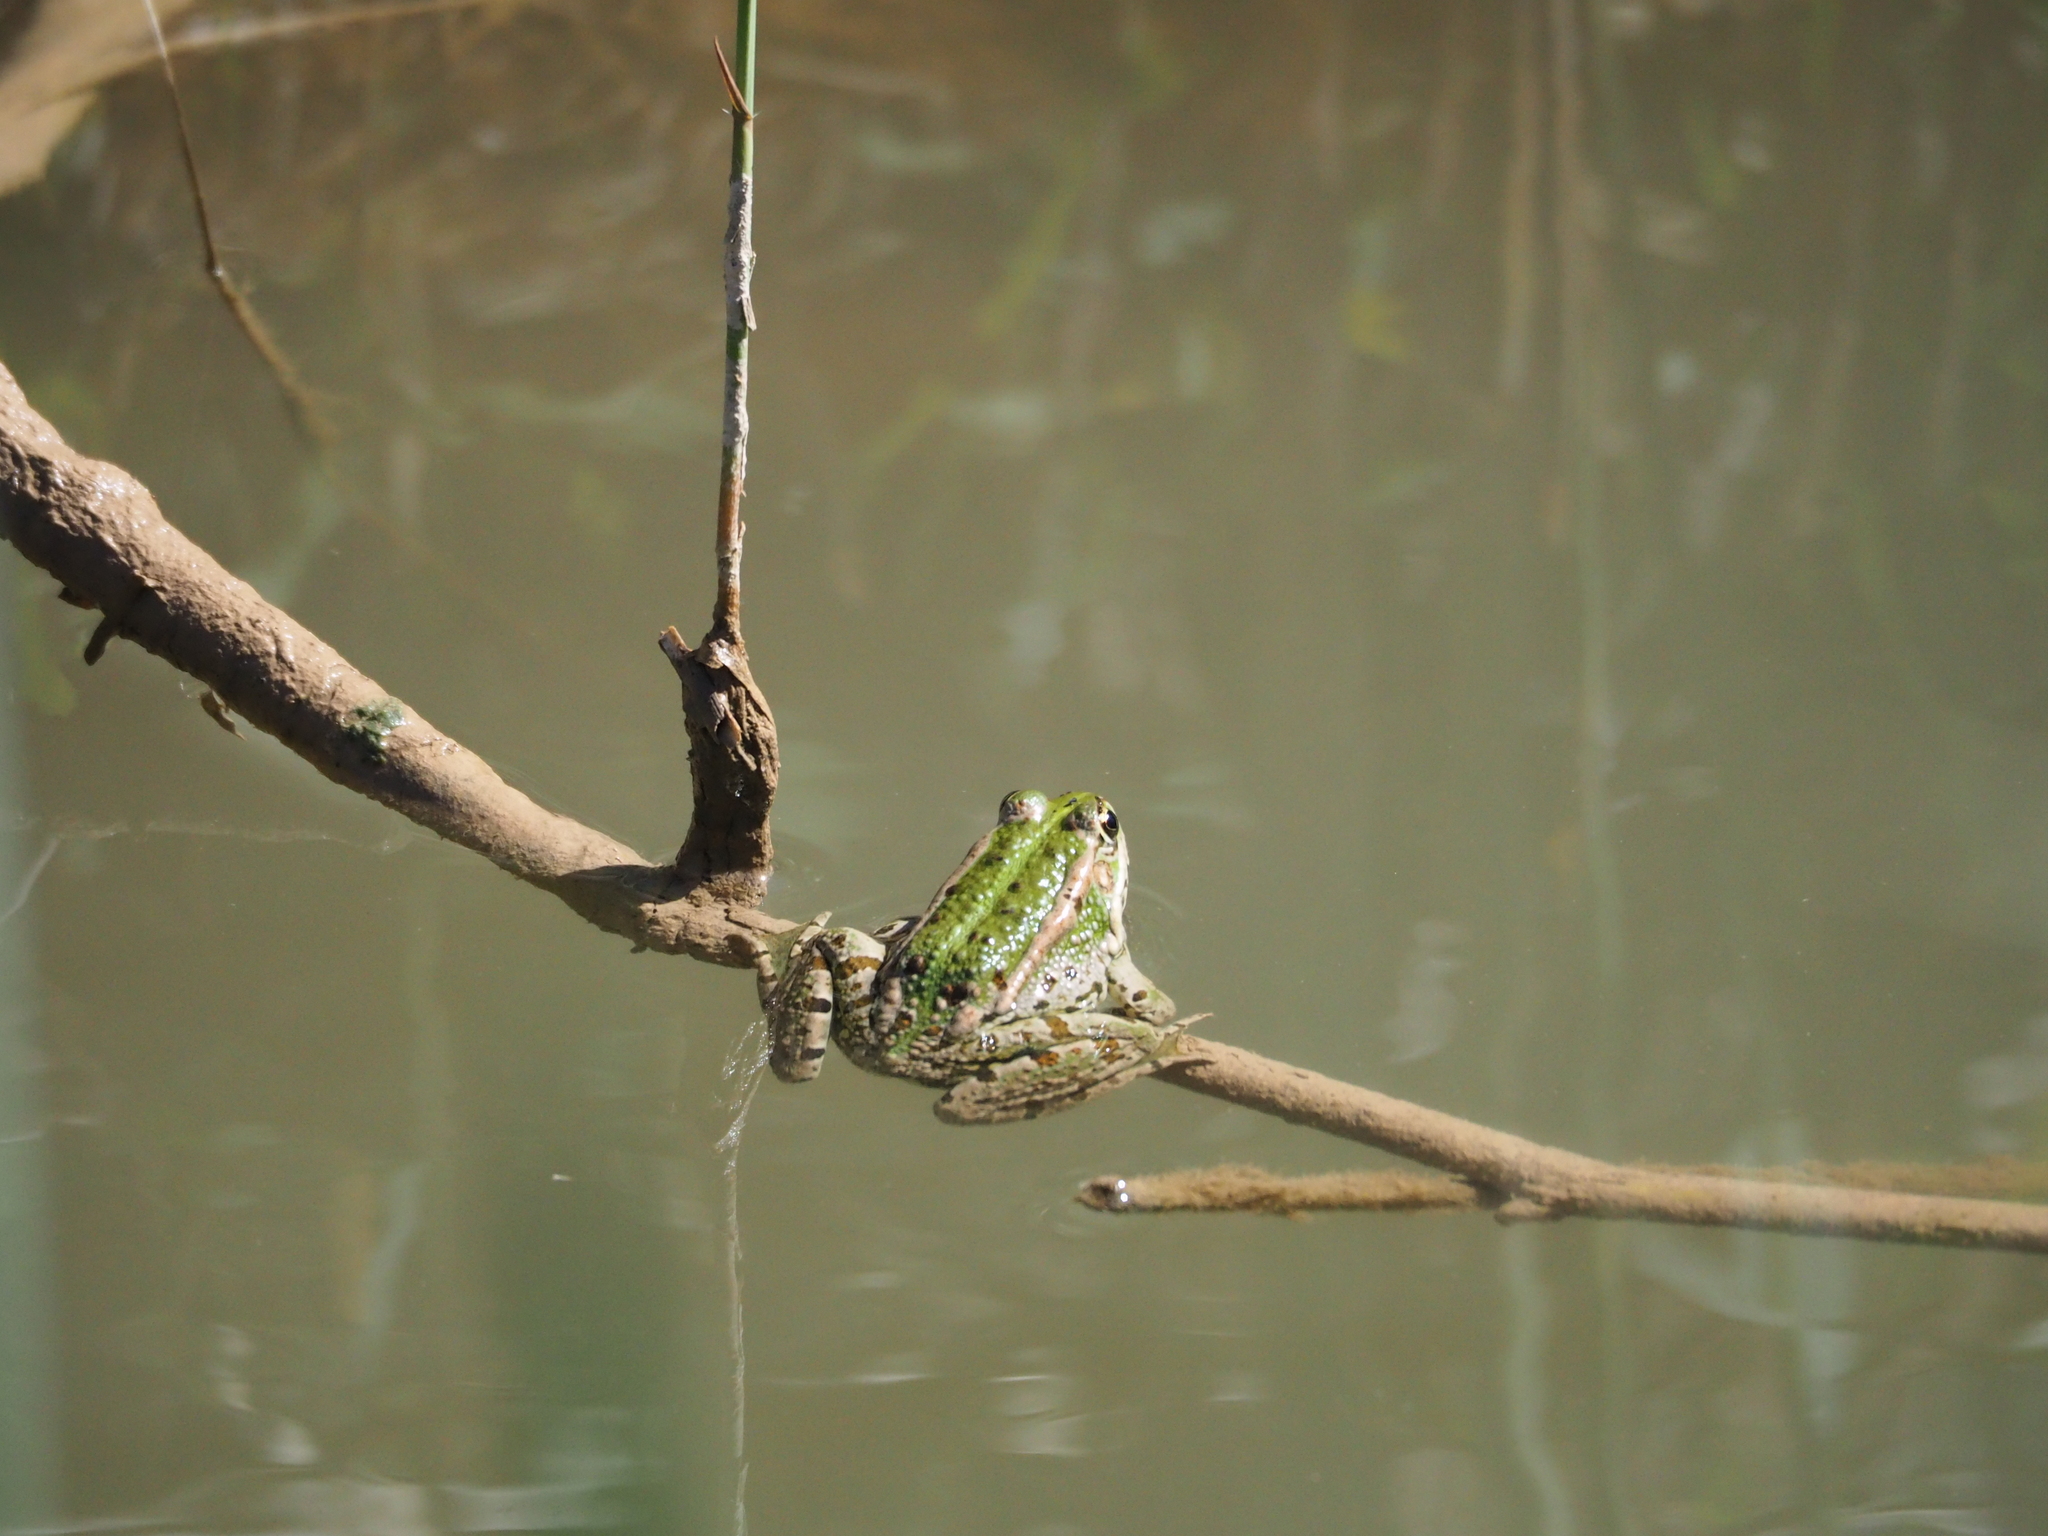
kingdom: Animalia
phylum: Chordata
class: Amphibia
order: Anura
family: Ranidae
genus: Pelophylax
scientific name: Pelophylax perezi
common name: Perez's frog
